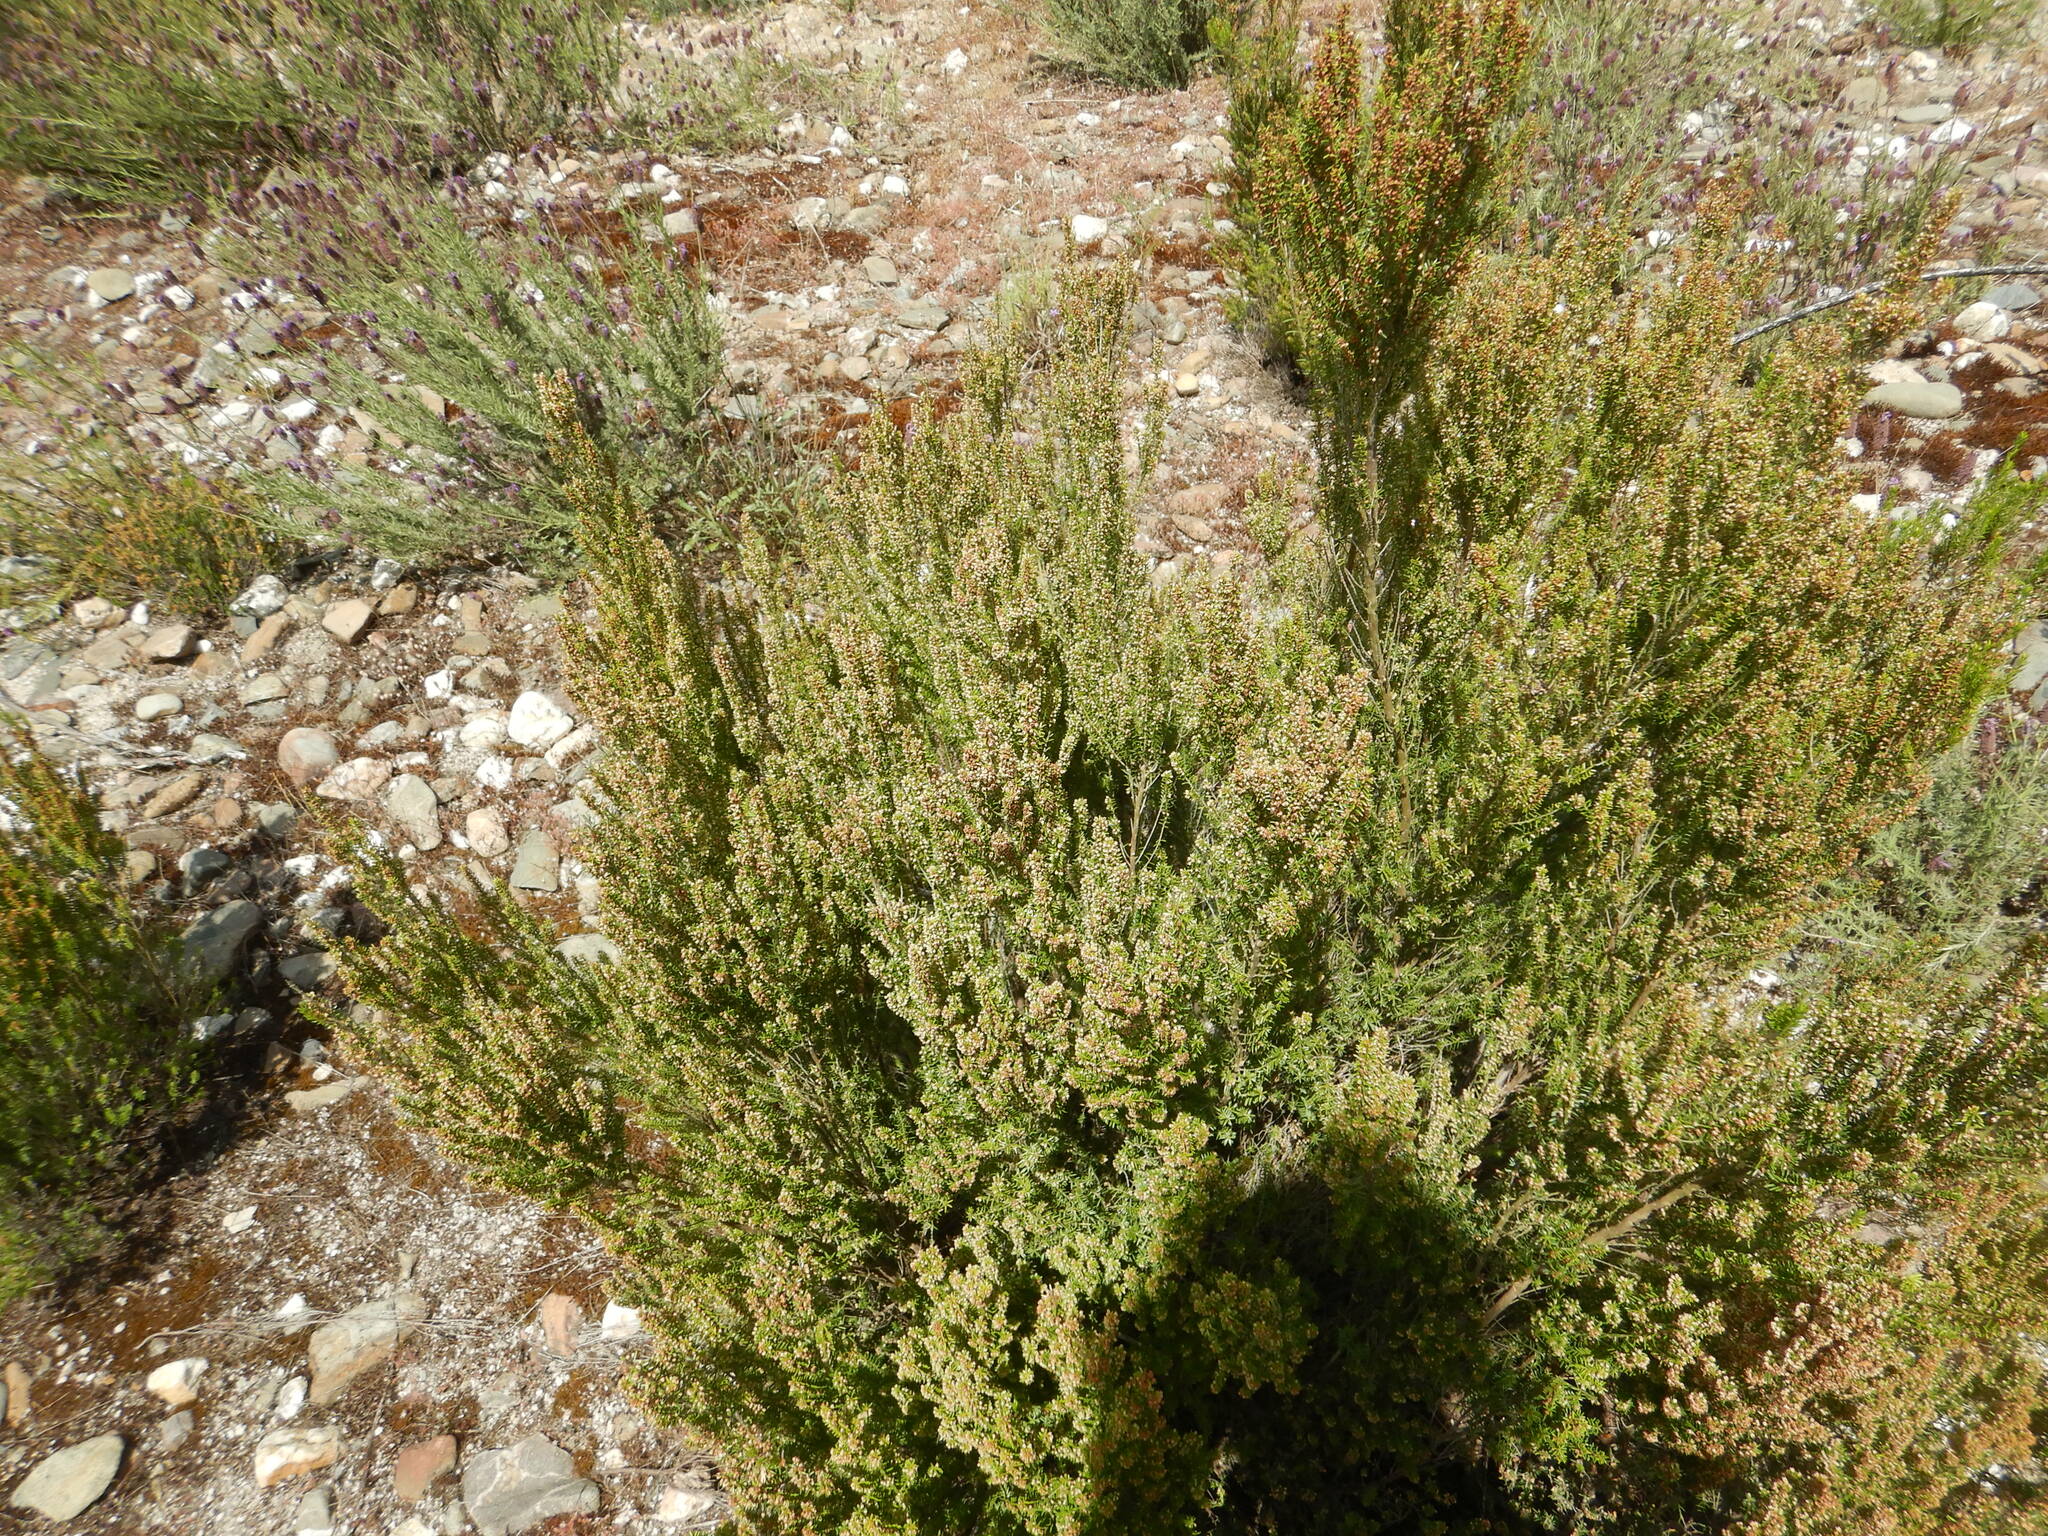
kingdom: Plantae
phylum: Tracheophyta
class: Magnoliopsida
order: Ericales
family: Ericaceae
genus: Erica
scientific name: Erica scoparia
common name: Green heather
